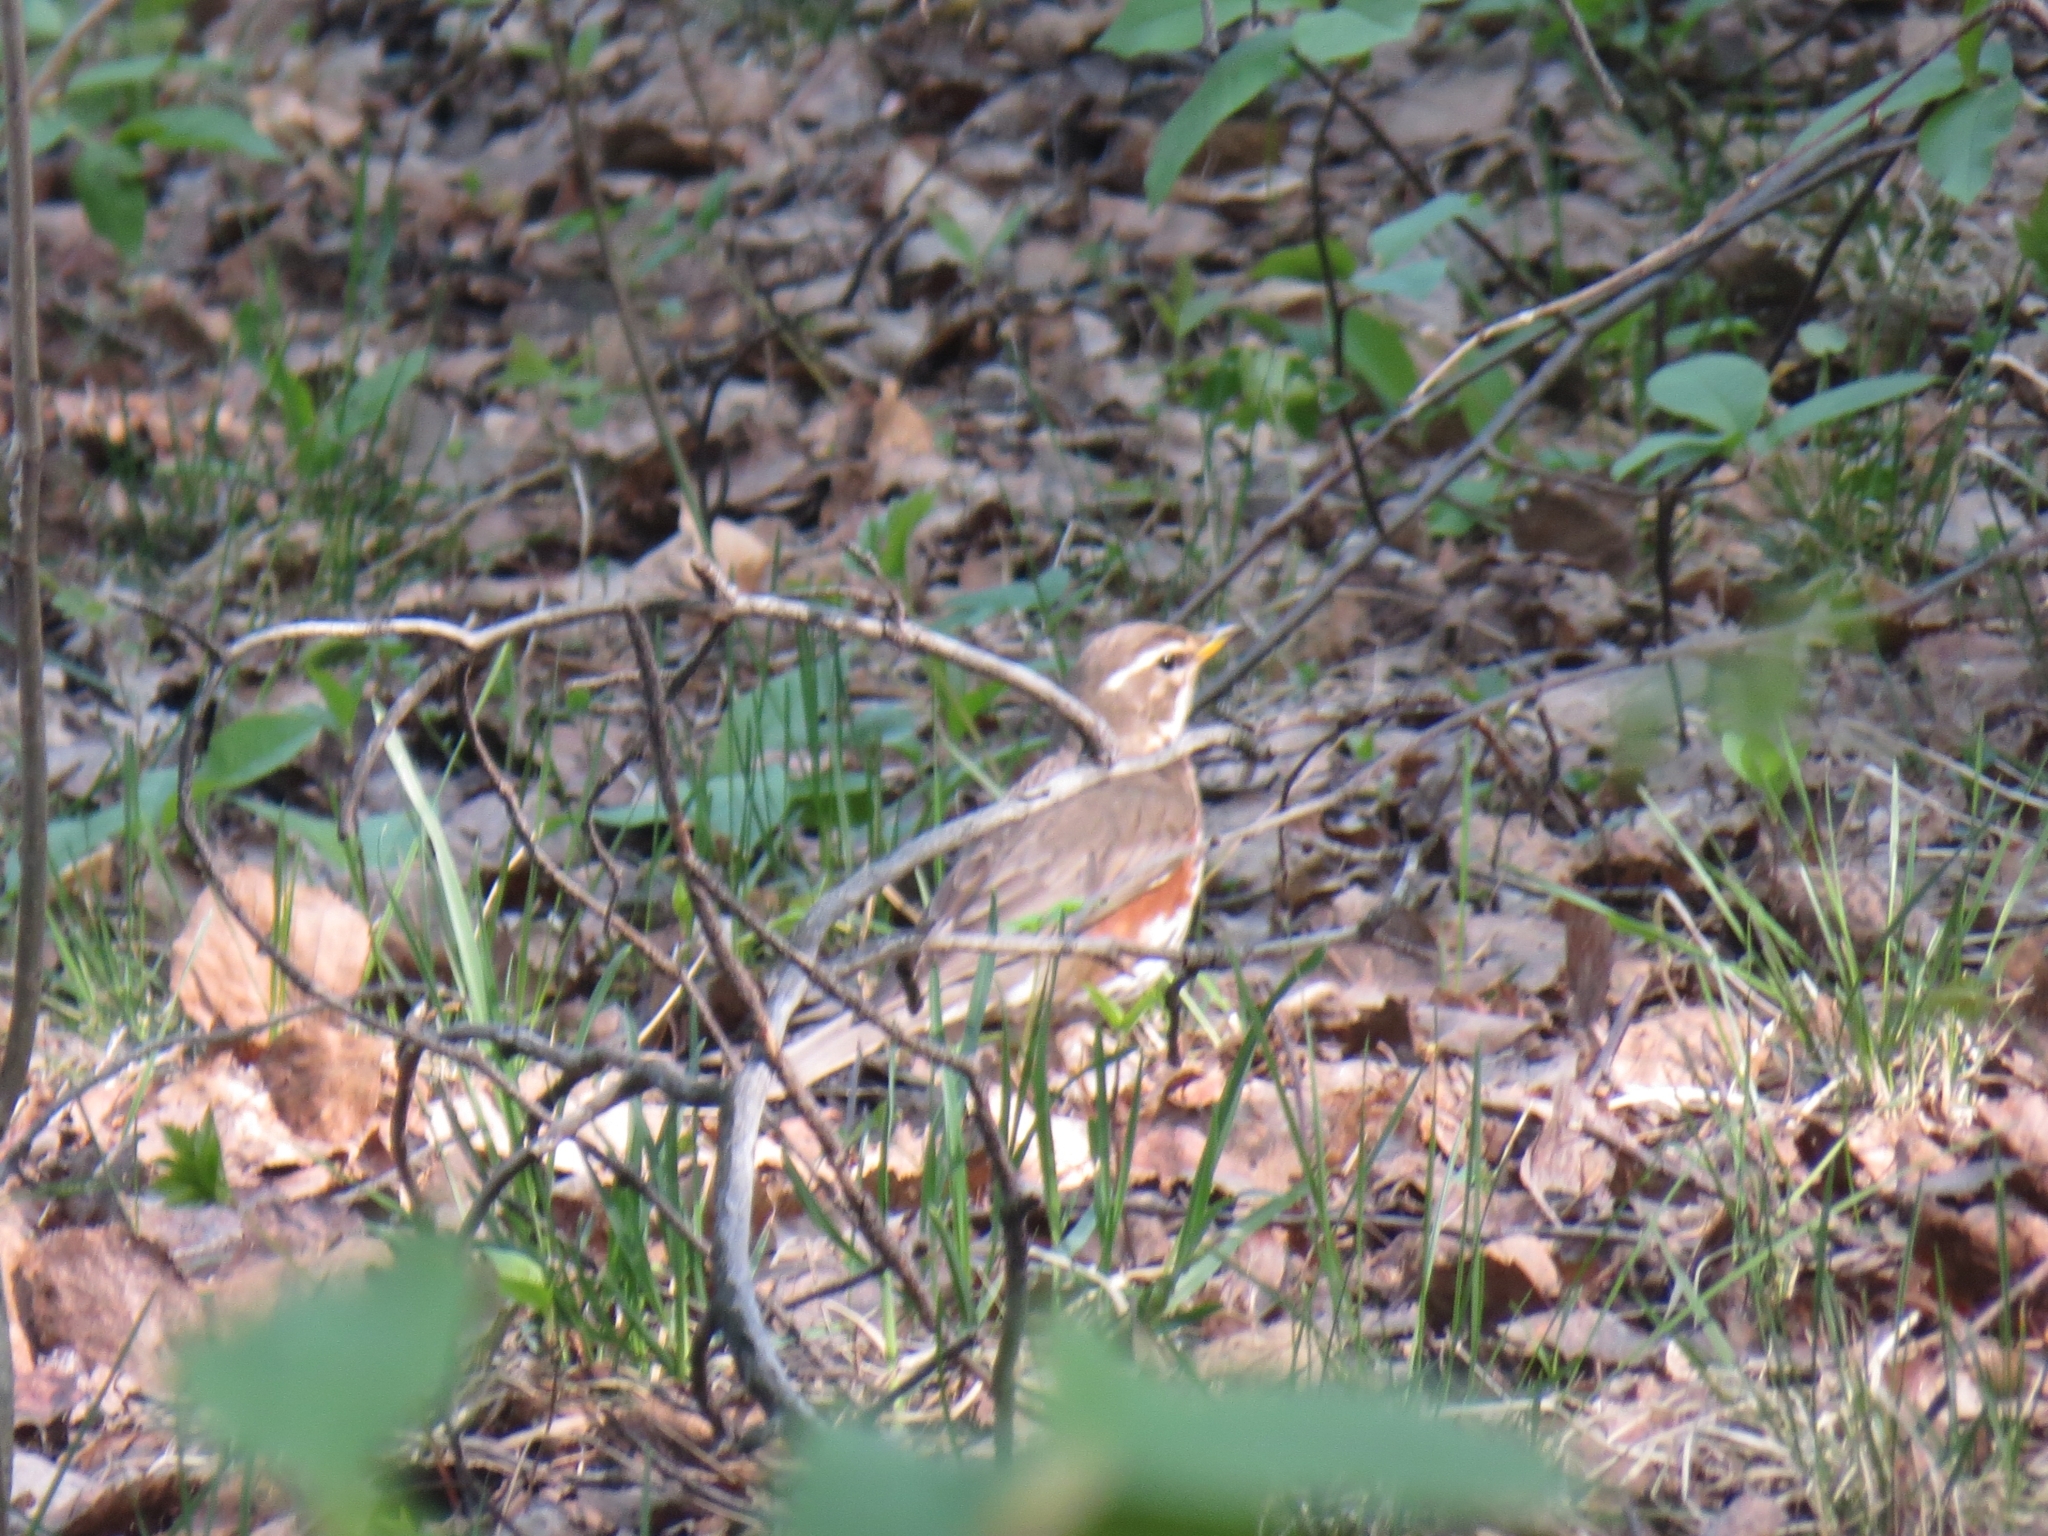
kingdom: Animalia
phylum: Chordata
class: Aves
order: Passeriformes
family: Turdidae
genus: Turdus
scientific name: Turdus iliacus
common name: Redwing
